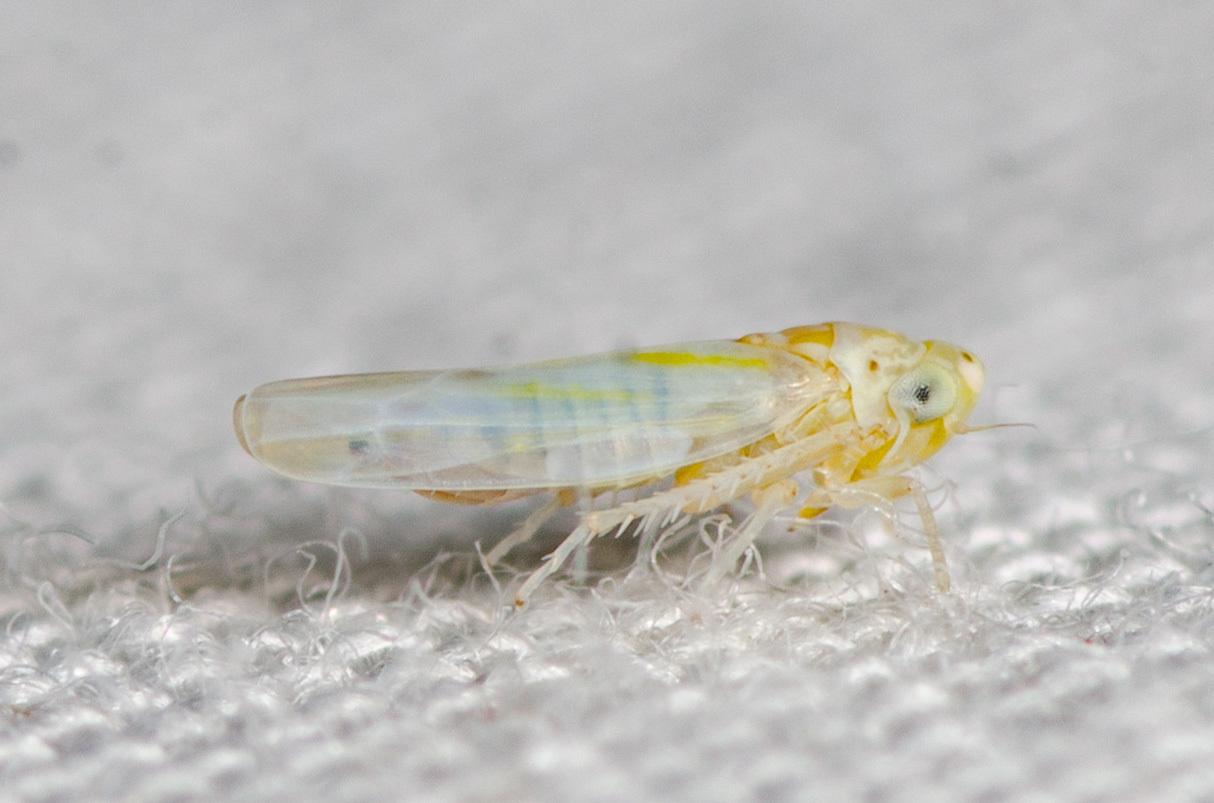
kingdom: Animalia
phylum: Arthropoda
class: Insecta
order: Hemiptera
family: Cicadellidae
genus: Zyginama
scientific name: Zyginama tripunctata
